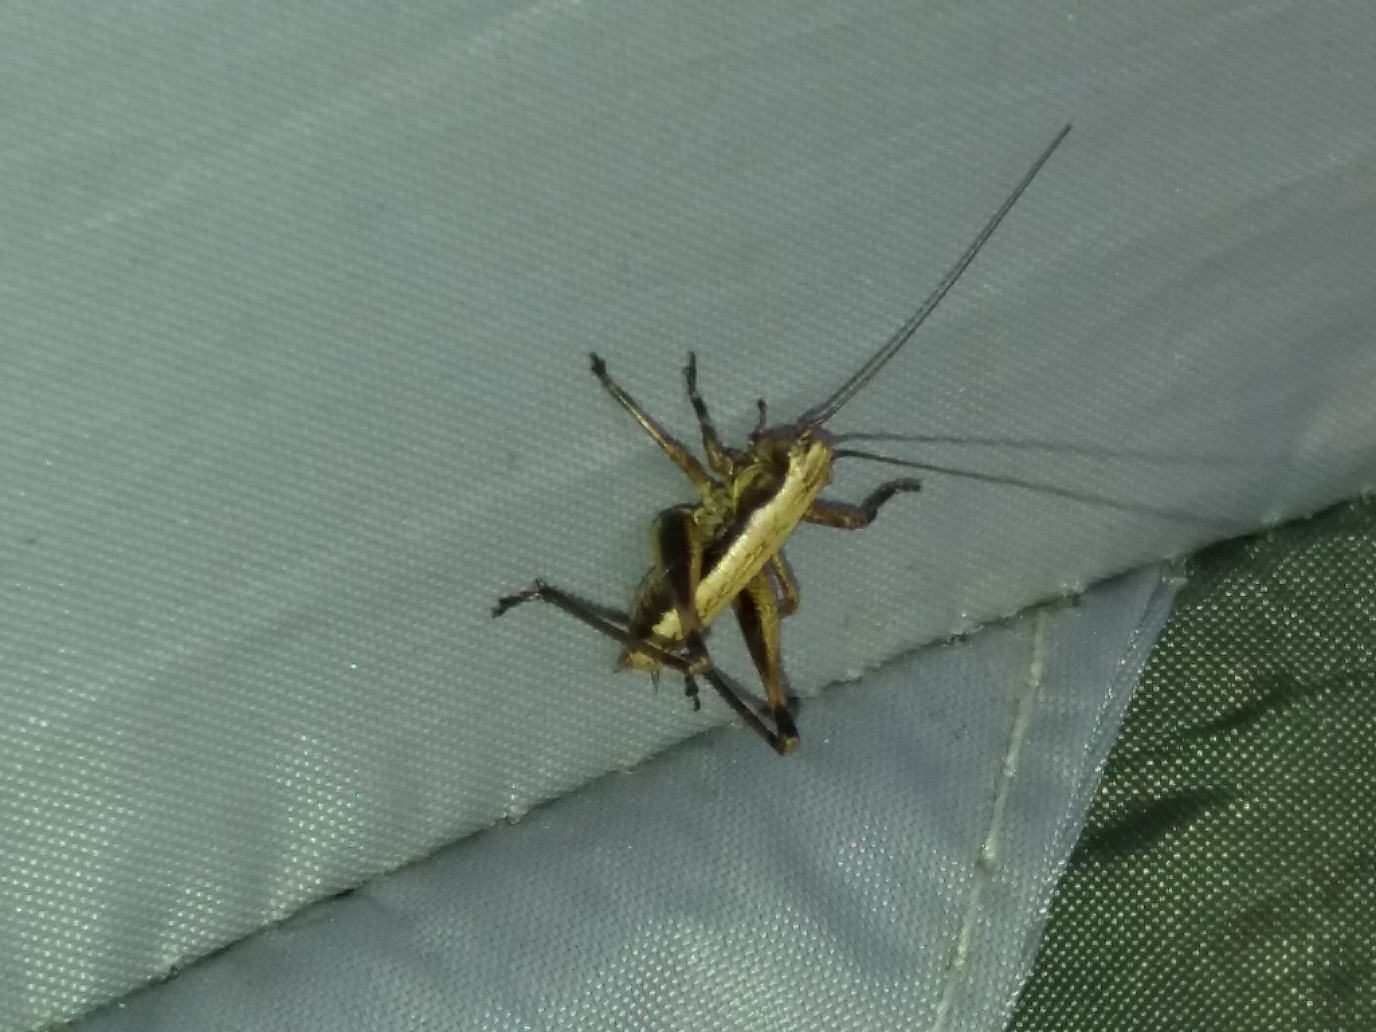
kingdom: Animalia
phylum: Arthropoda
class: Insecta
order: Orthoptera
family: Tettigoniidae
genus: Pholidoptera
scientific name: Pholidoptera griseoaptera
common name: Dark bush-cricket
